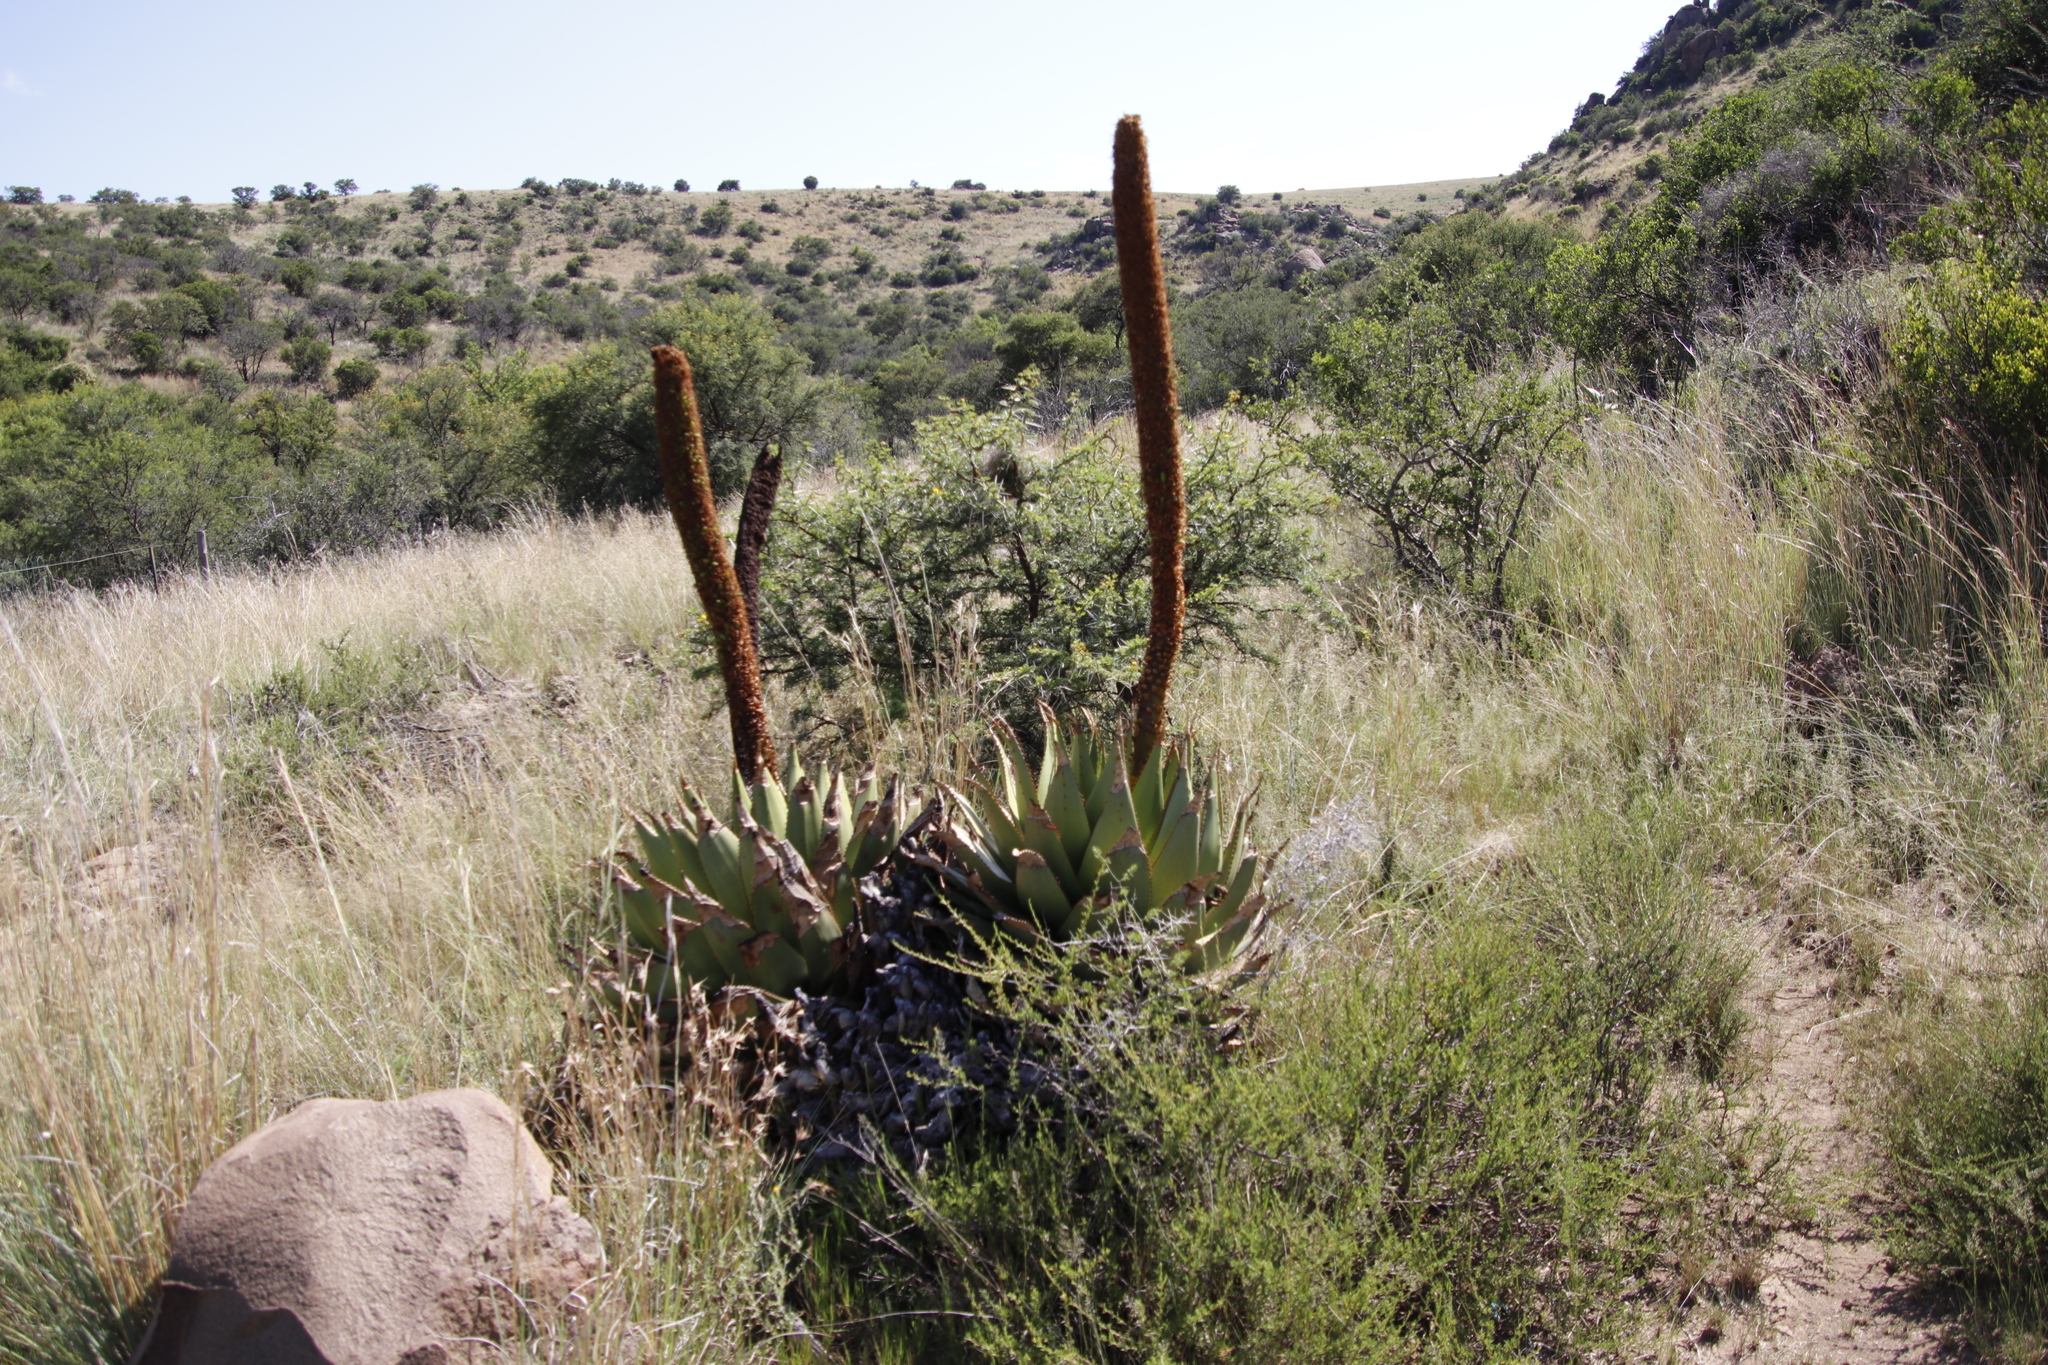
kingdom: Plantae
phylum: Tracheophyta
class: Liliopsida
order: Asparagales
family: Asphodelaceae
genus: Aloe
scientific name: Aloe broomii
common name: Berg alwyn
